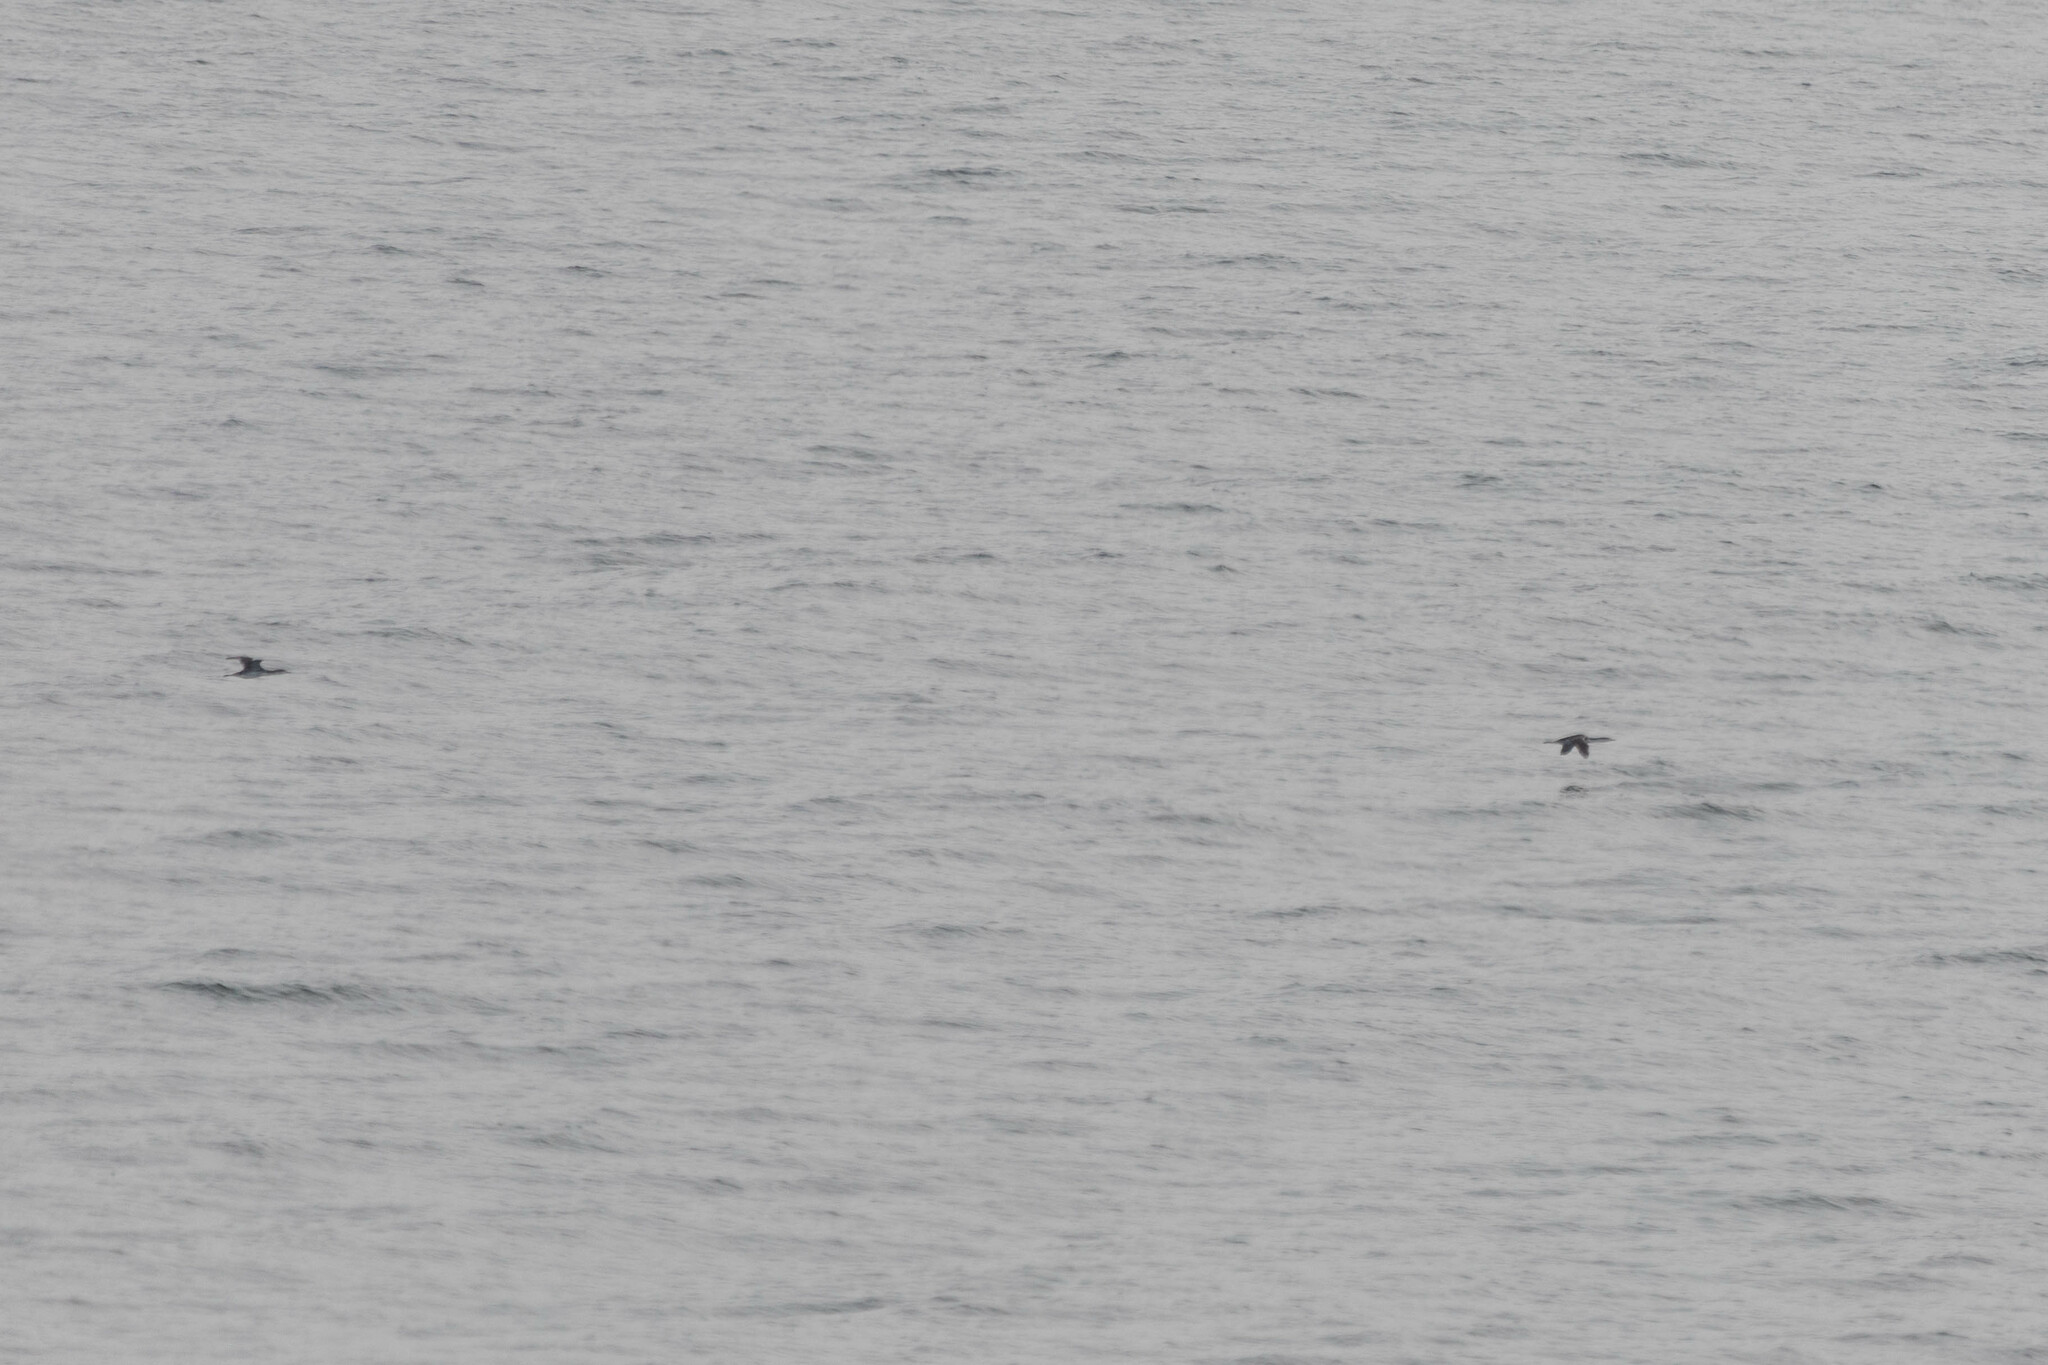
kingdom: Animalia
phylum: Chordata
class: Aves
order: Gaviiformes
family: Gaviidae
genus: Gavia
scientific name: Gavia stellata
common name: Red-throated loon
